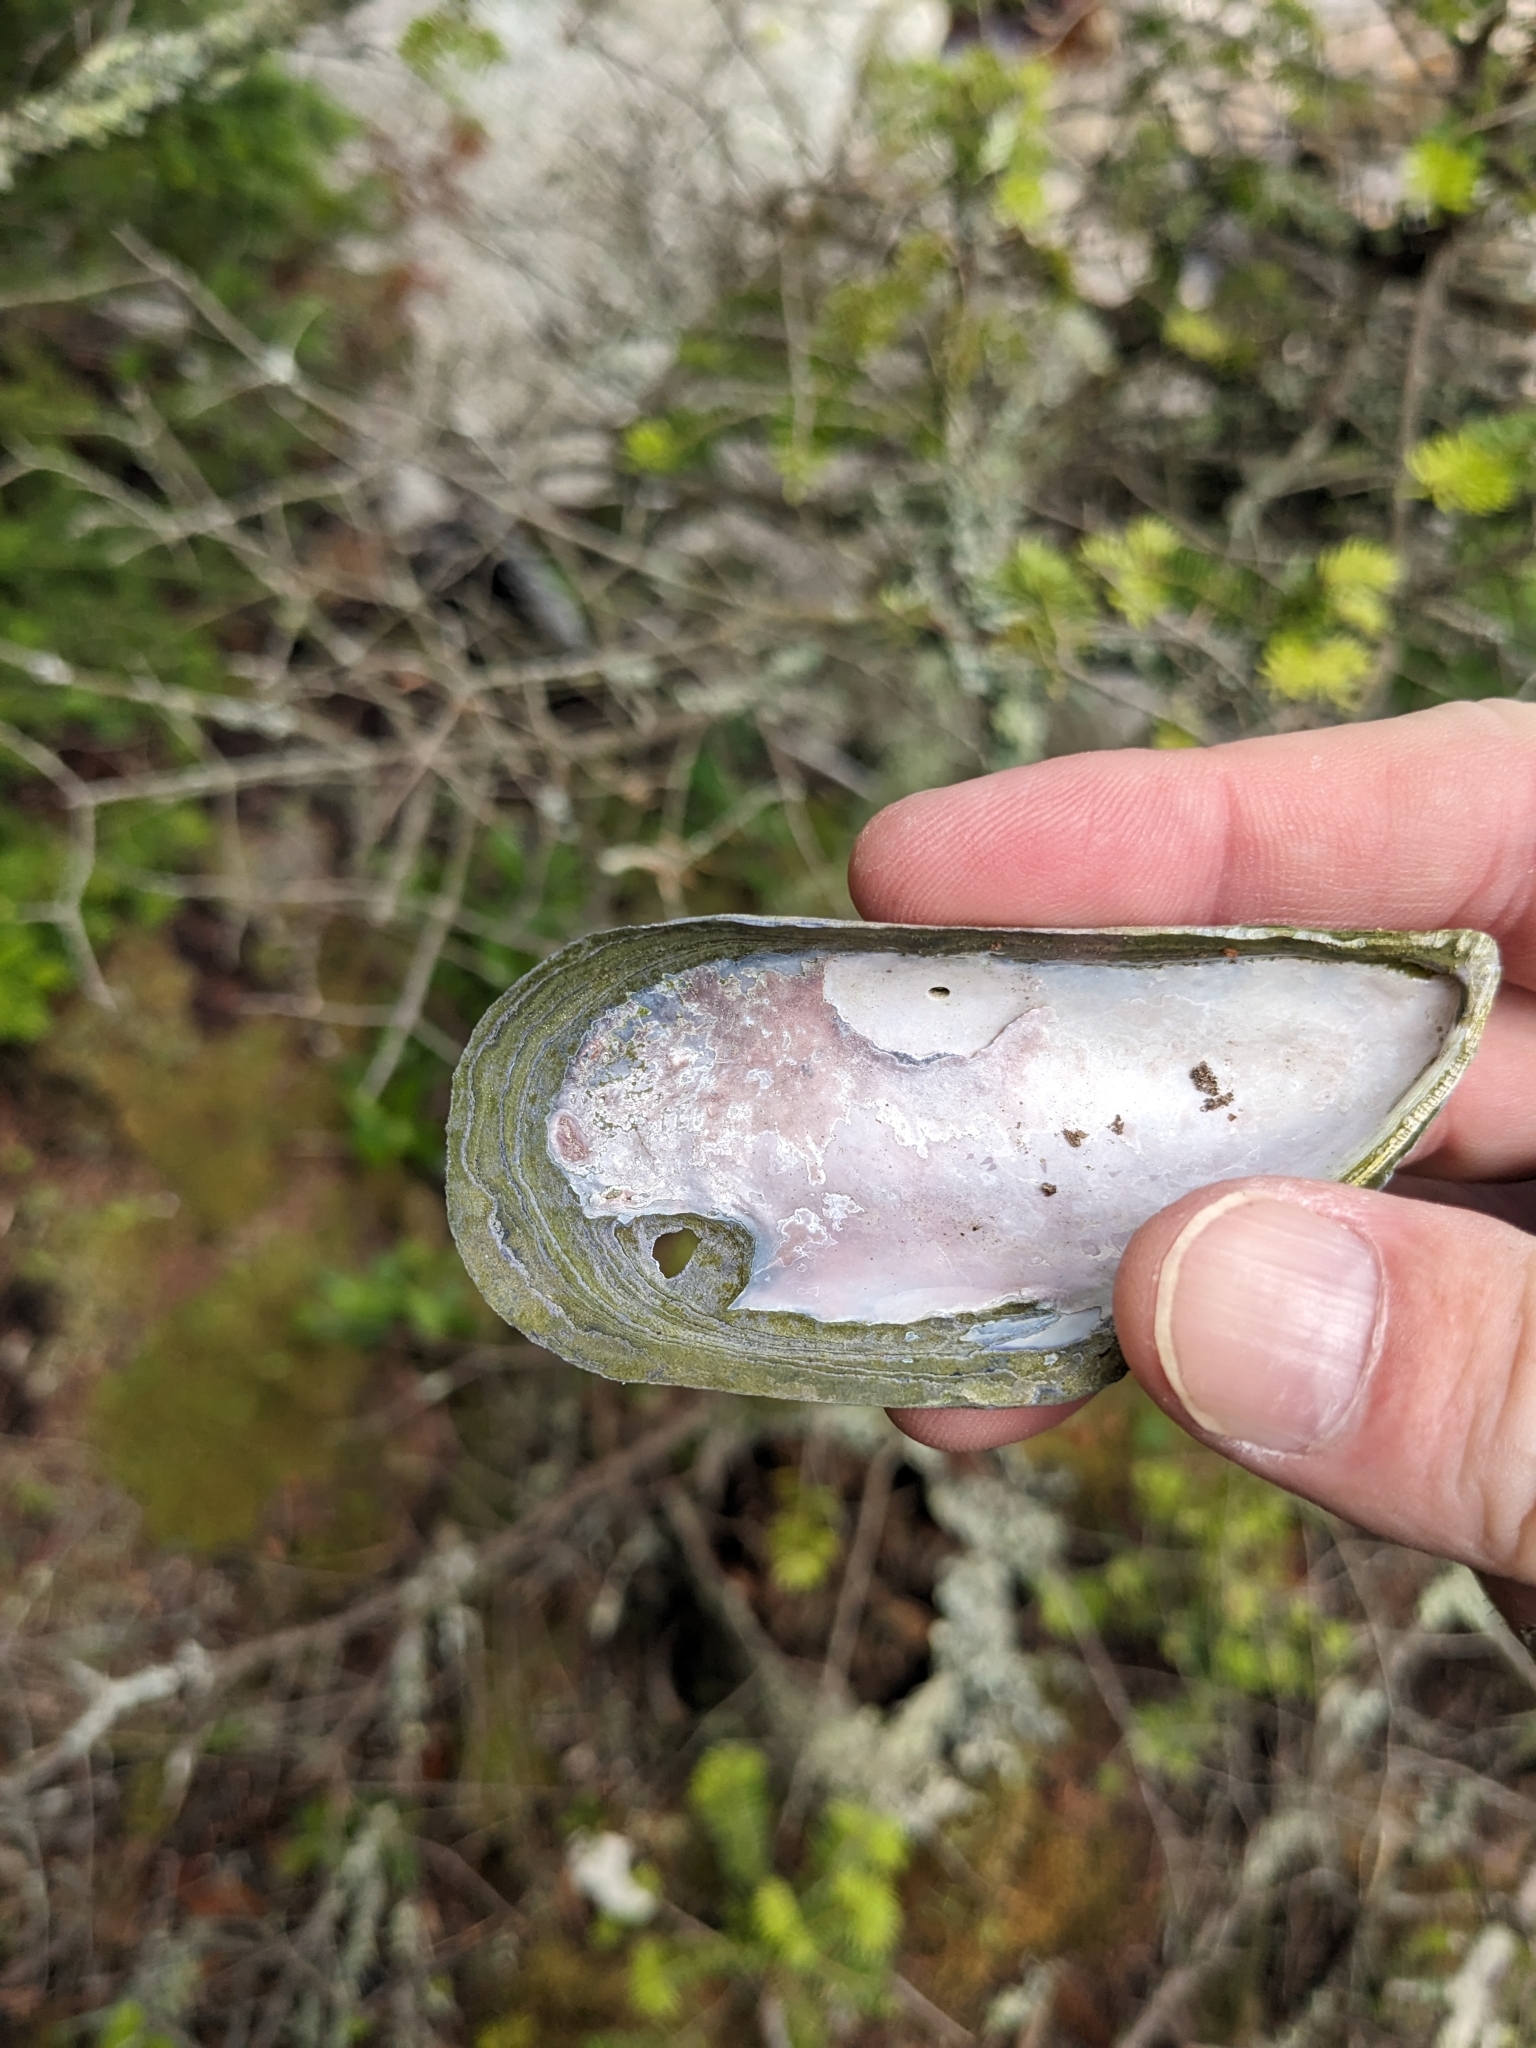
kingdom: Animalia
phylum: Mollusca
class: Bivalvia
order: Mytilida
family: Mytilidae
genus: Mytilus
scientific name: Mytilus
